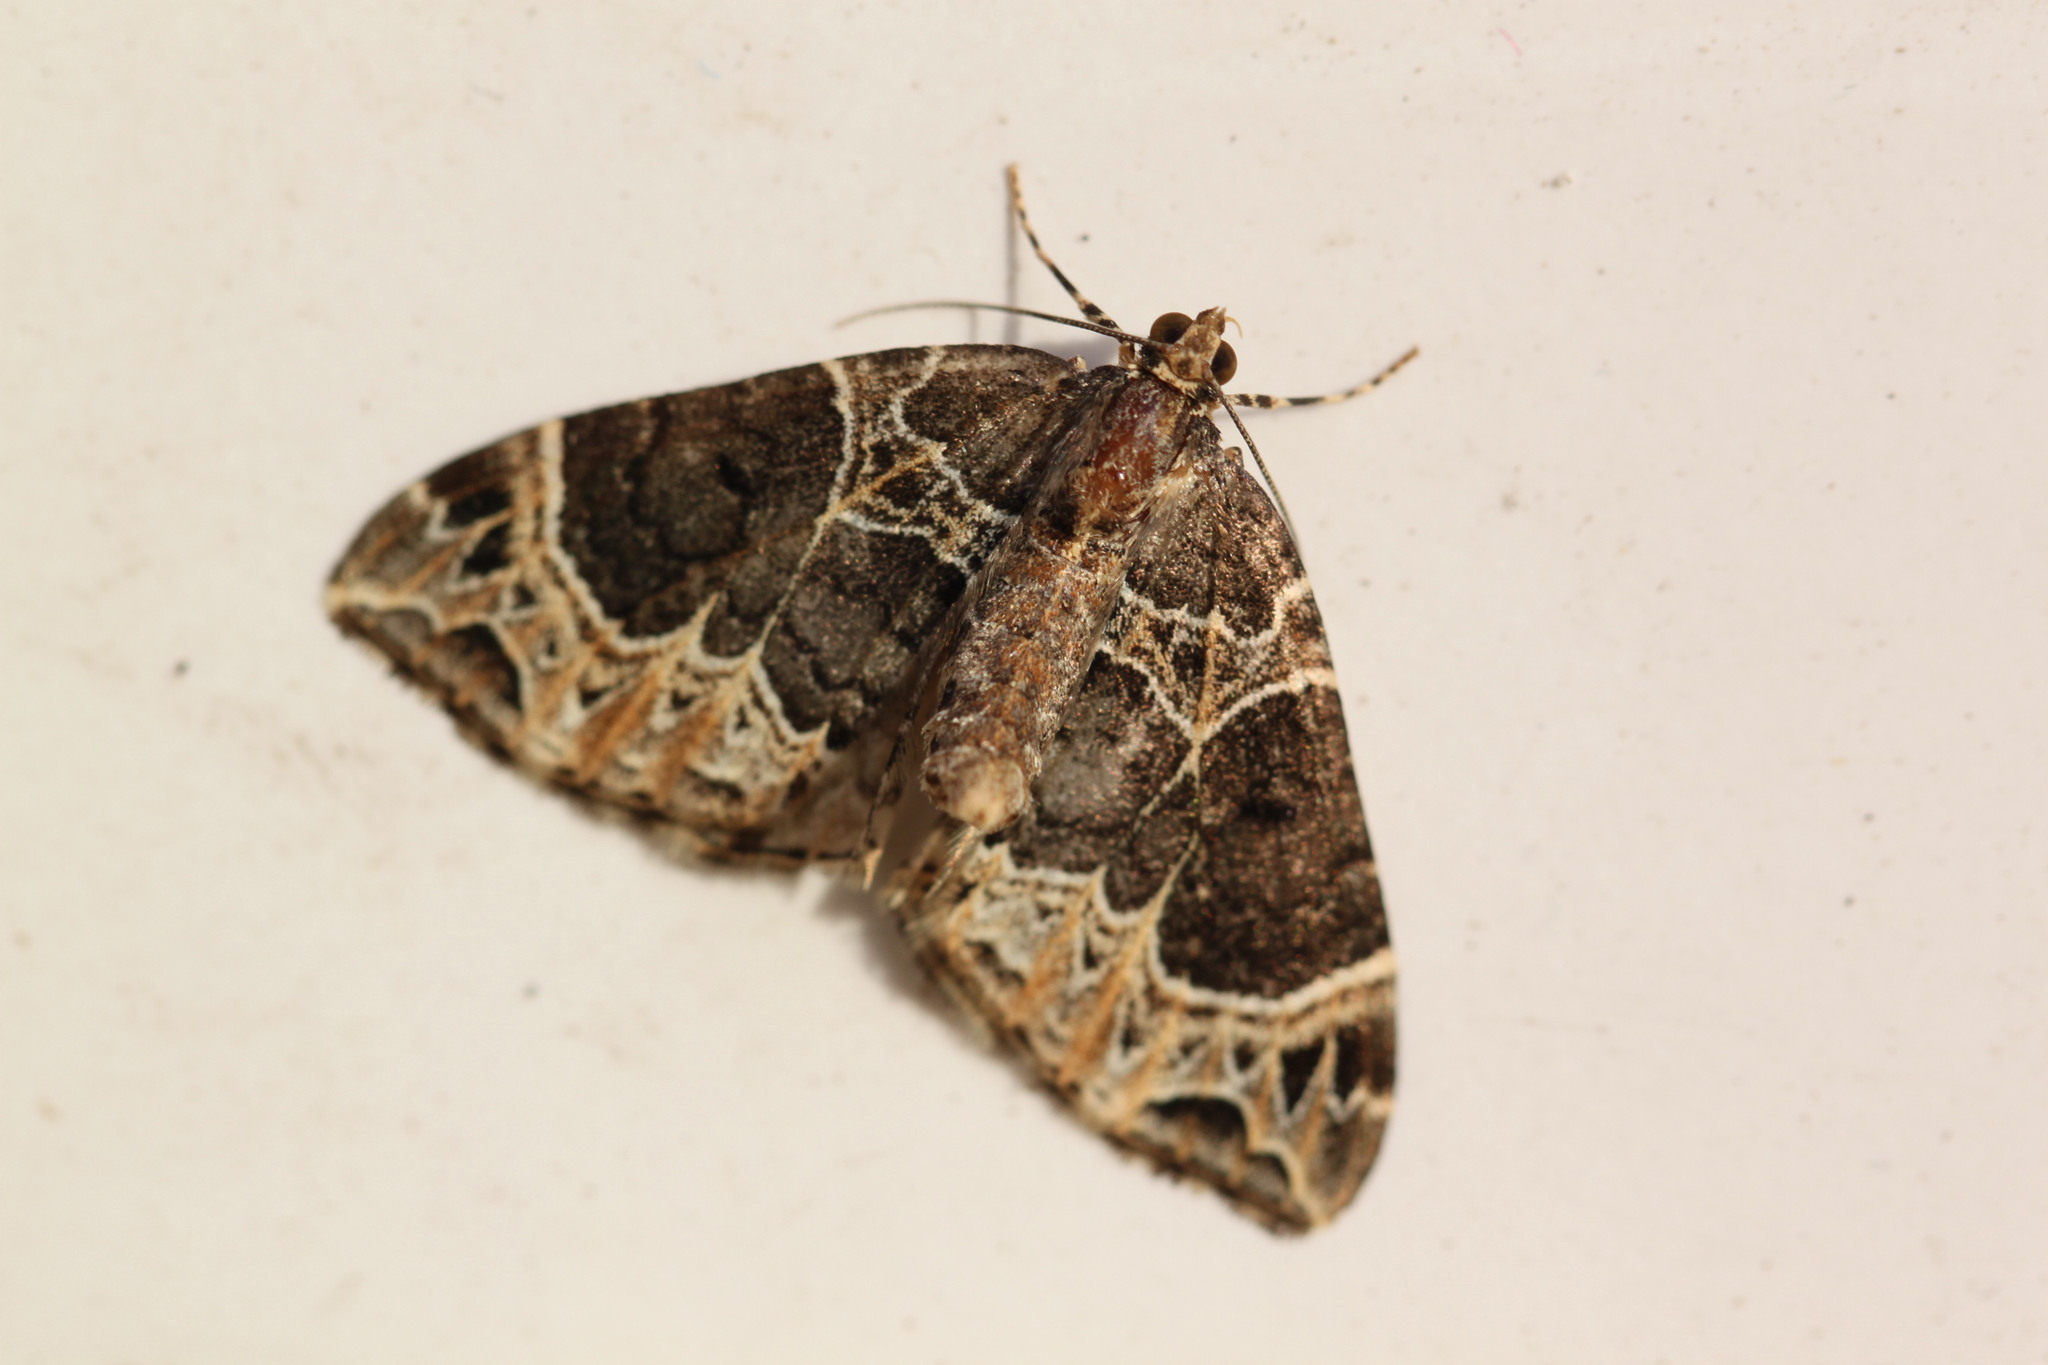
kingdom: Animalia
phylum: Arthropoda
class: Insecta
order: Lepidoptera
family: Geometridae
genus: Ecliptopera
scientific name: Ecliptopera silaceata
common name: Small phoenix
